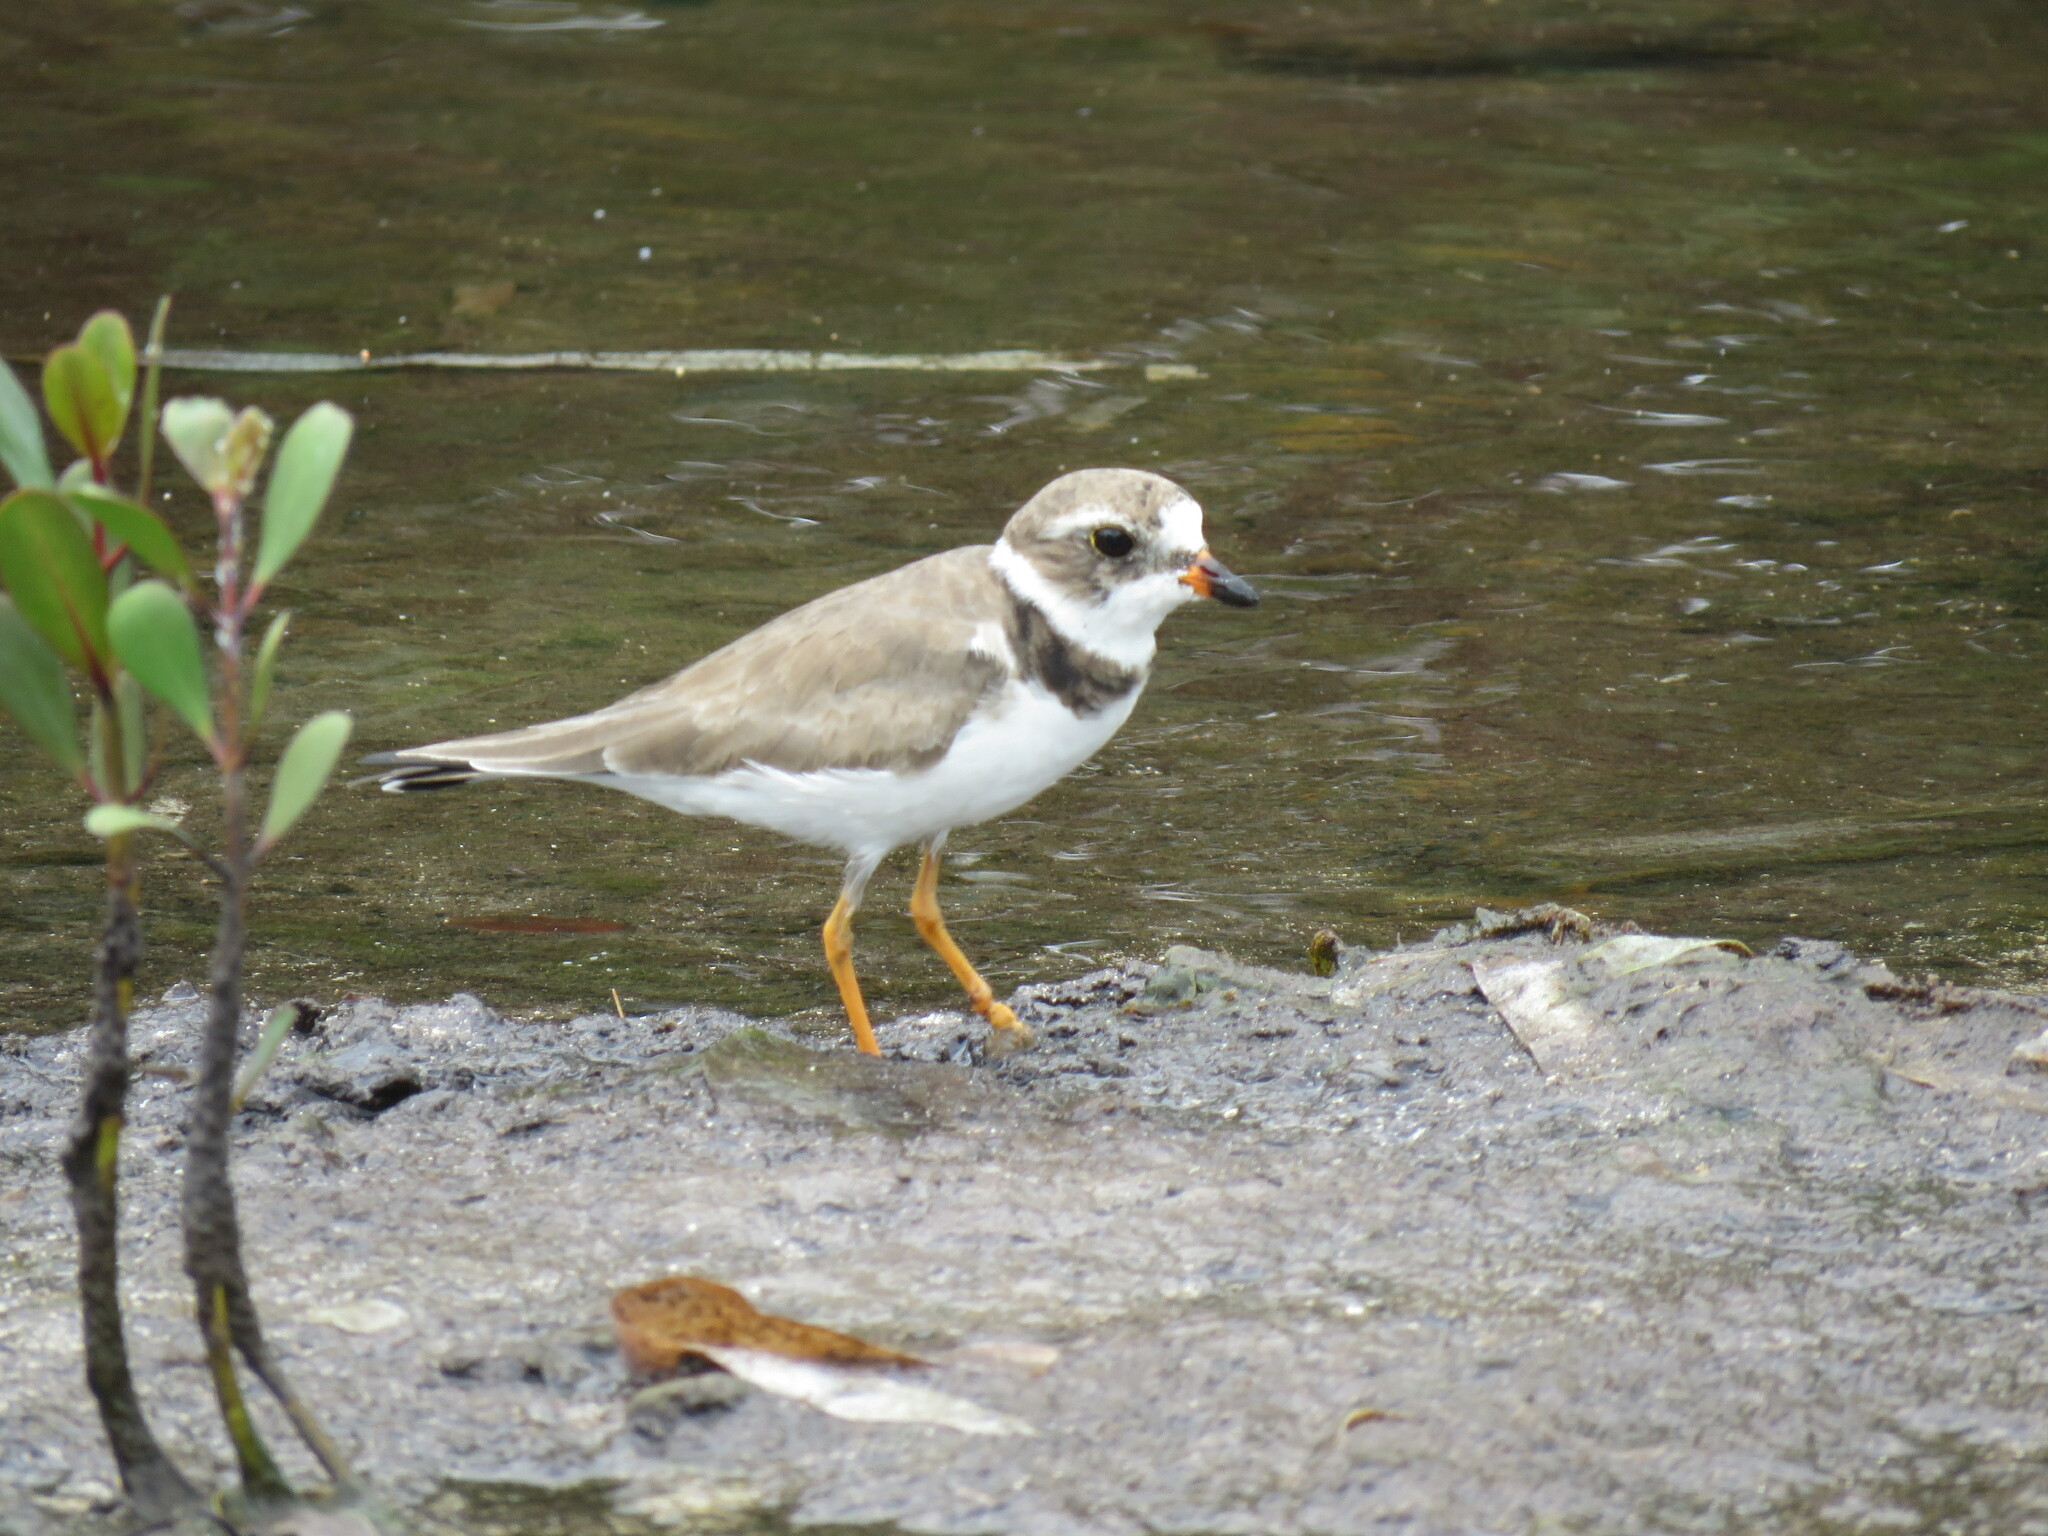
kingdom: Animalia
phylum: Chordata
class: Aves
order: Charadriiformes
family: Charadriidae
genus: Charadrius
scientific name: Charadrius semipalmatus
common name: Semipalmated plover
